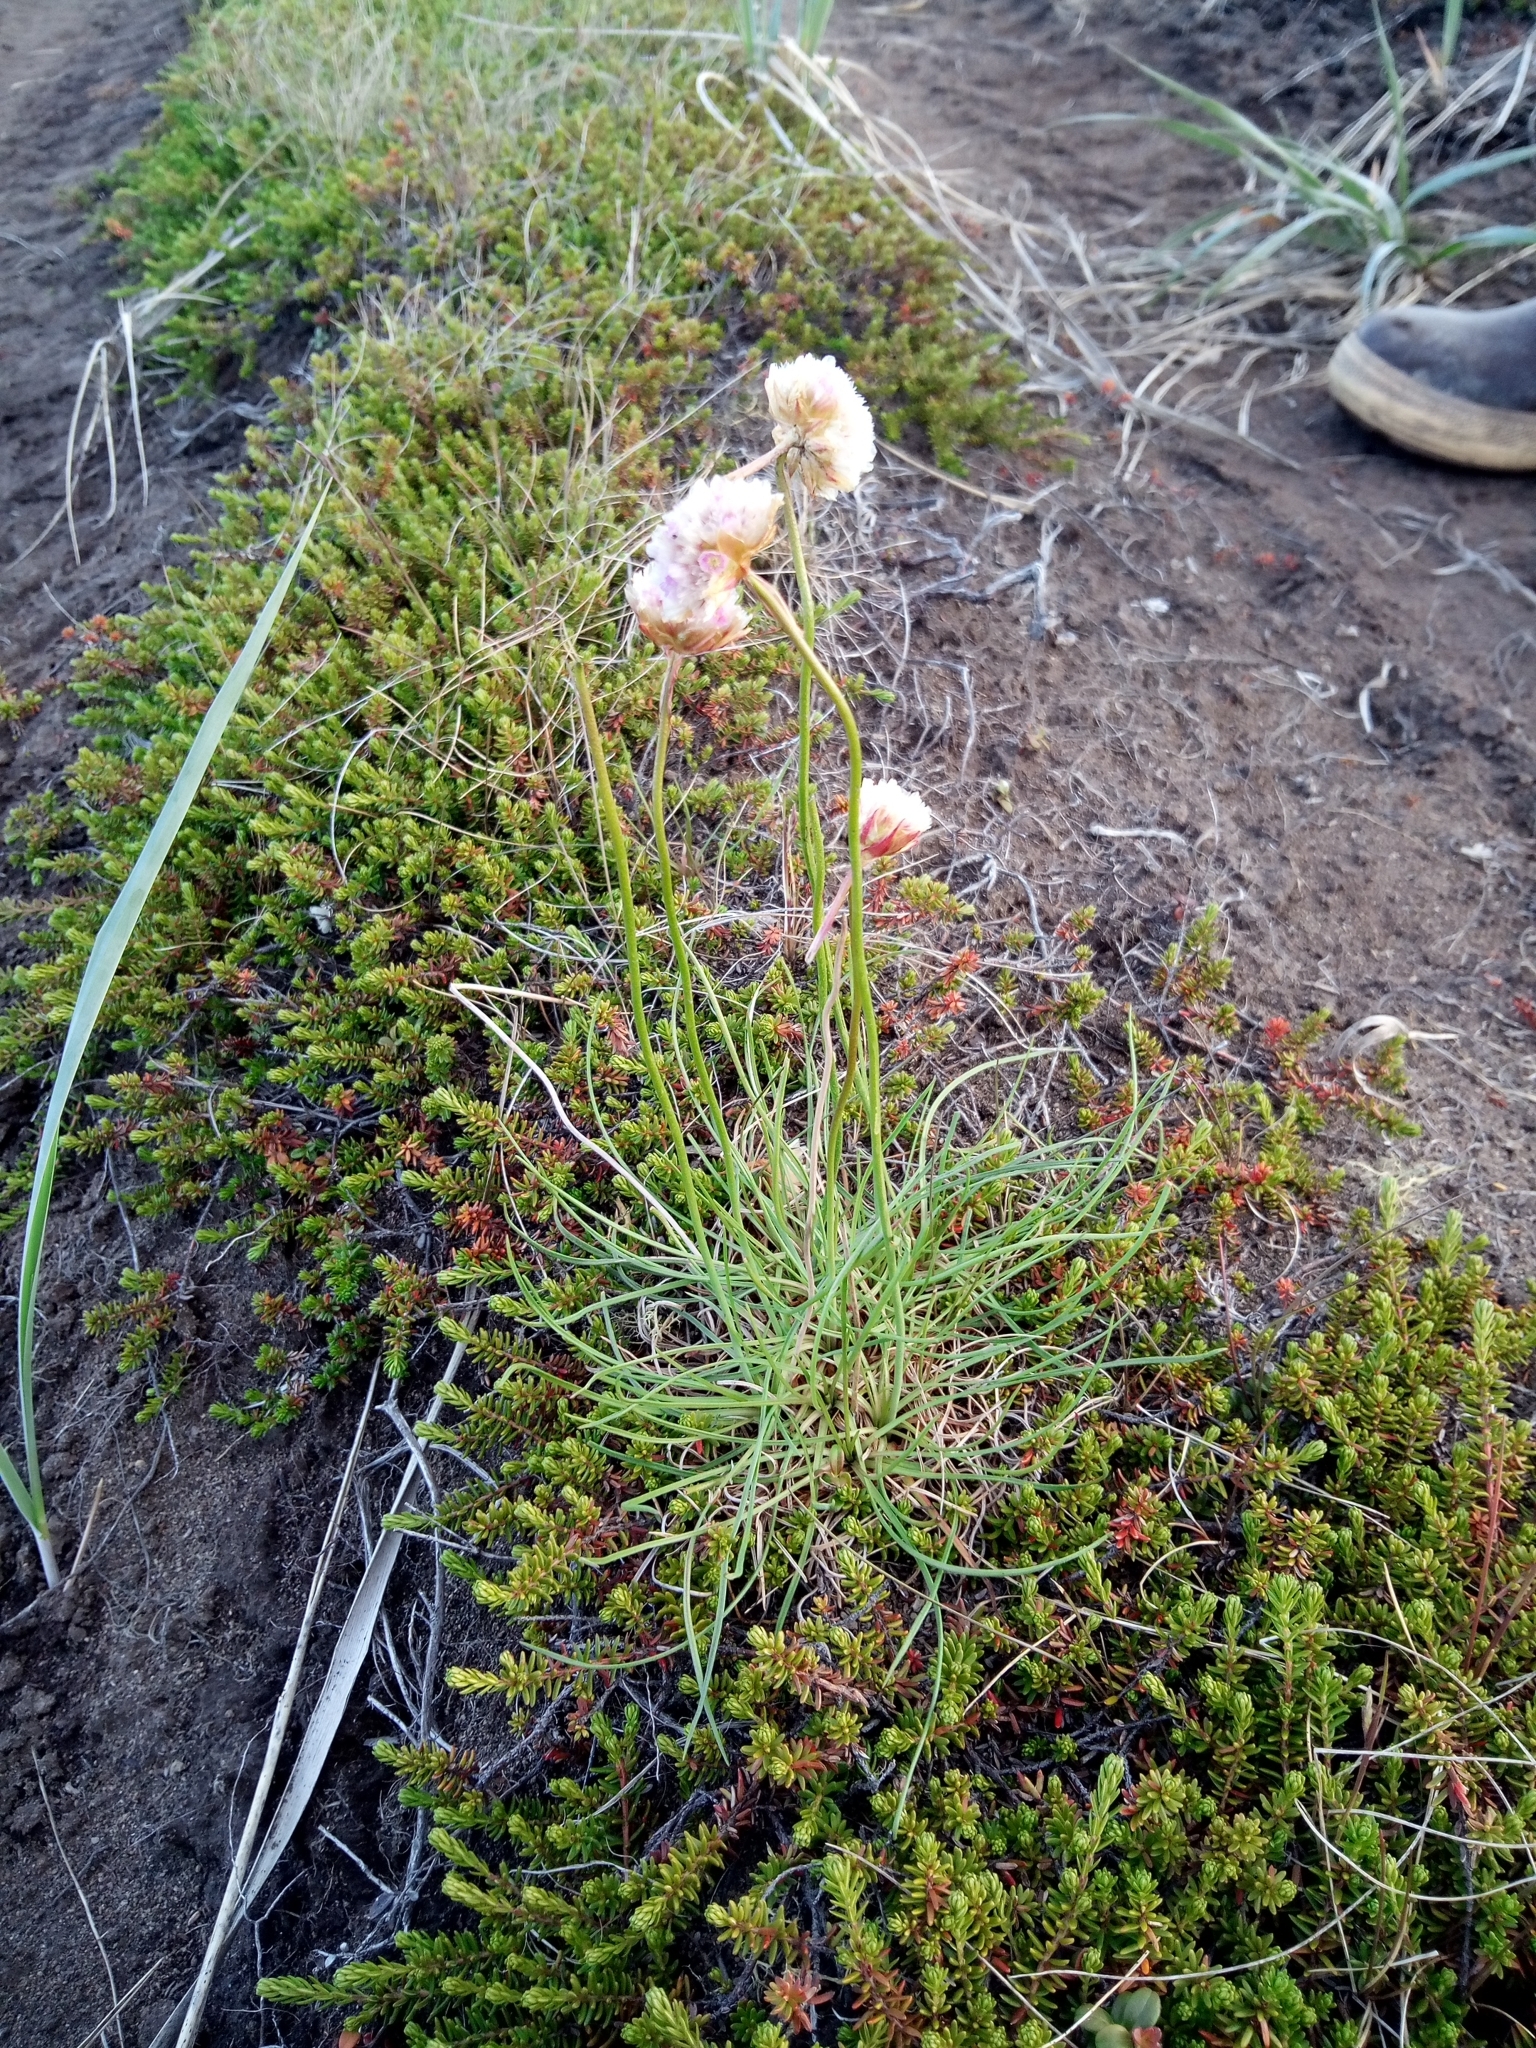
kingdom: Plantae
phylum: Tracheophyta
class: Magnoliopsida
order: Caryophyllales
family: Plumbaginaceae
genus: Armeria
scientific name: Armeria maritima
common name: Thrift
